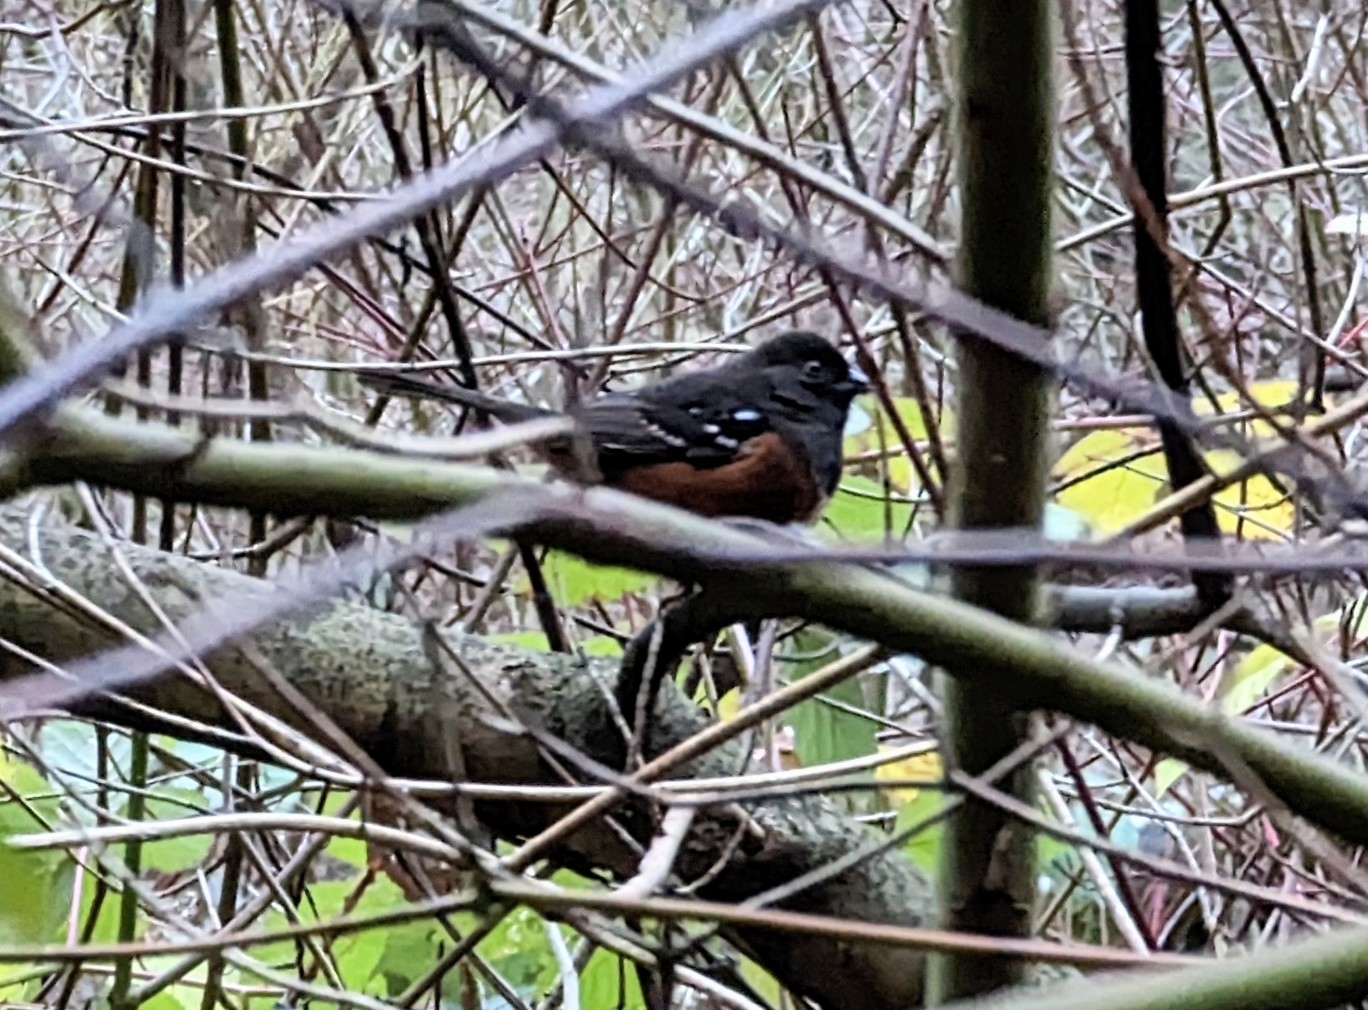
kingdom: Animalia
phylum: Chordata
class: Aves
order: Passeriformes
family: Passerellidae
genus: Pipilo
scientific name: Pipilo maculatus
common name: Spotted towhee
